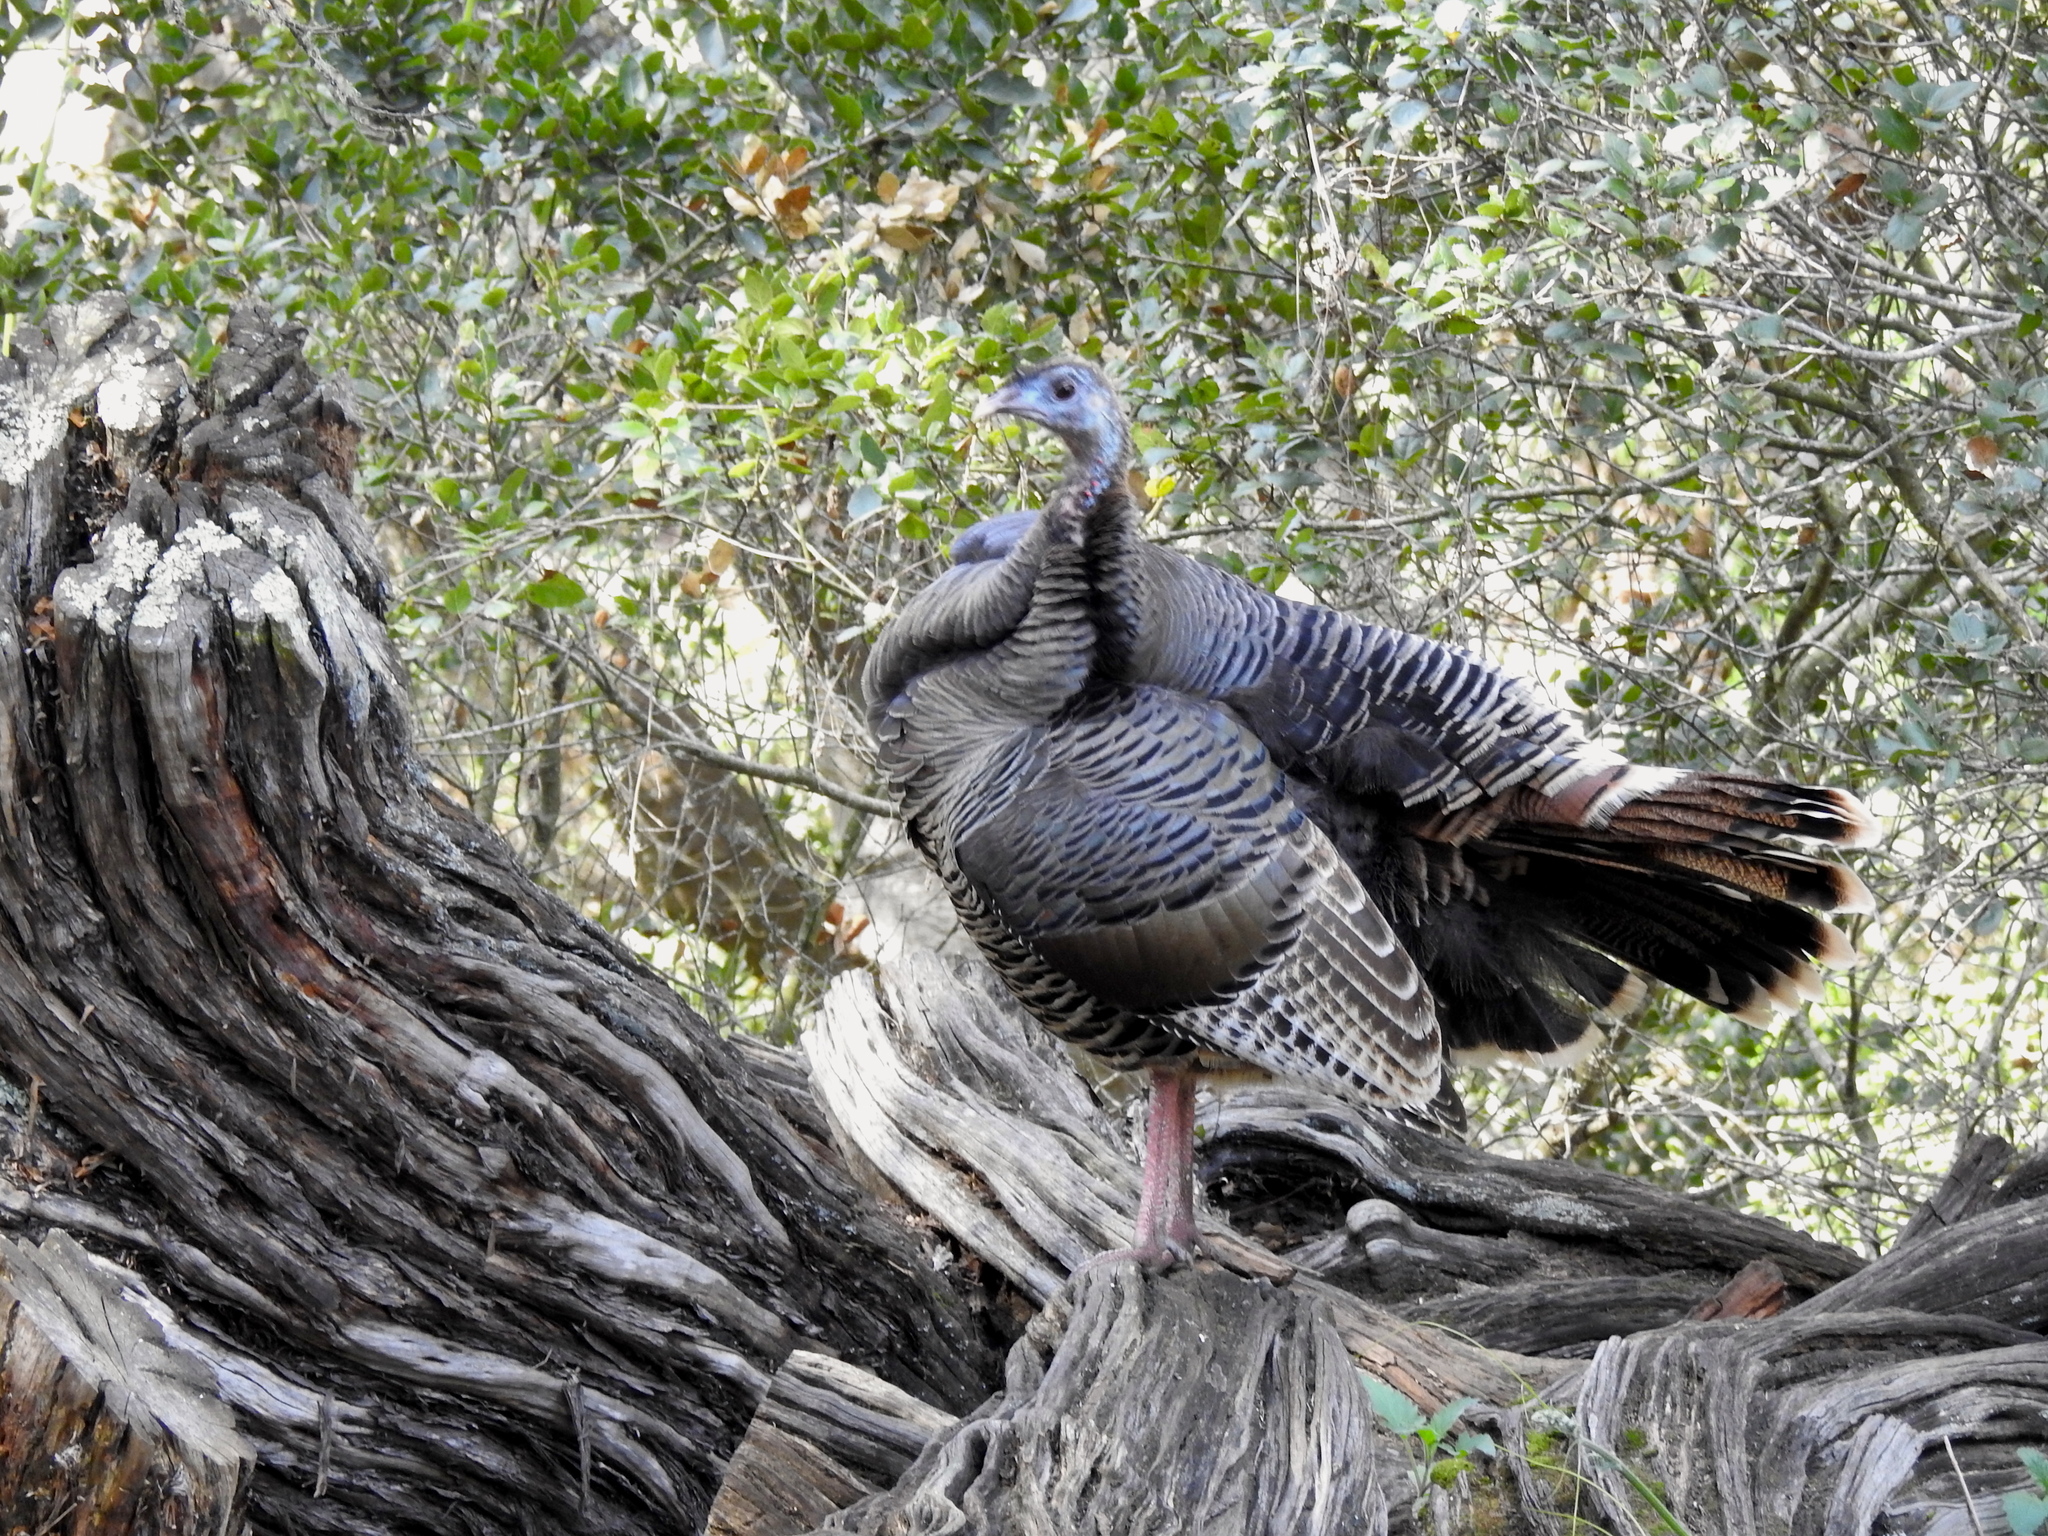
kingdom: Animalia
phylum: Chordata
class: Aves
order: Galliformes
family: Phasianidae
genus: Meleagris
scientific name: Meleagris gallopavo
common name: Wild turkey
